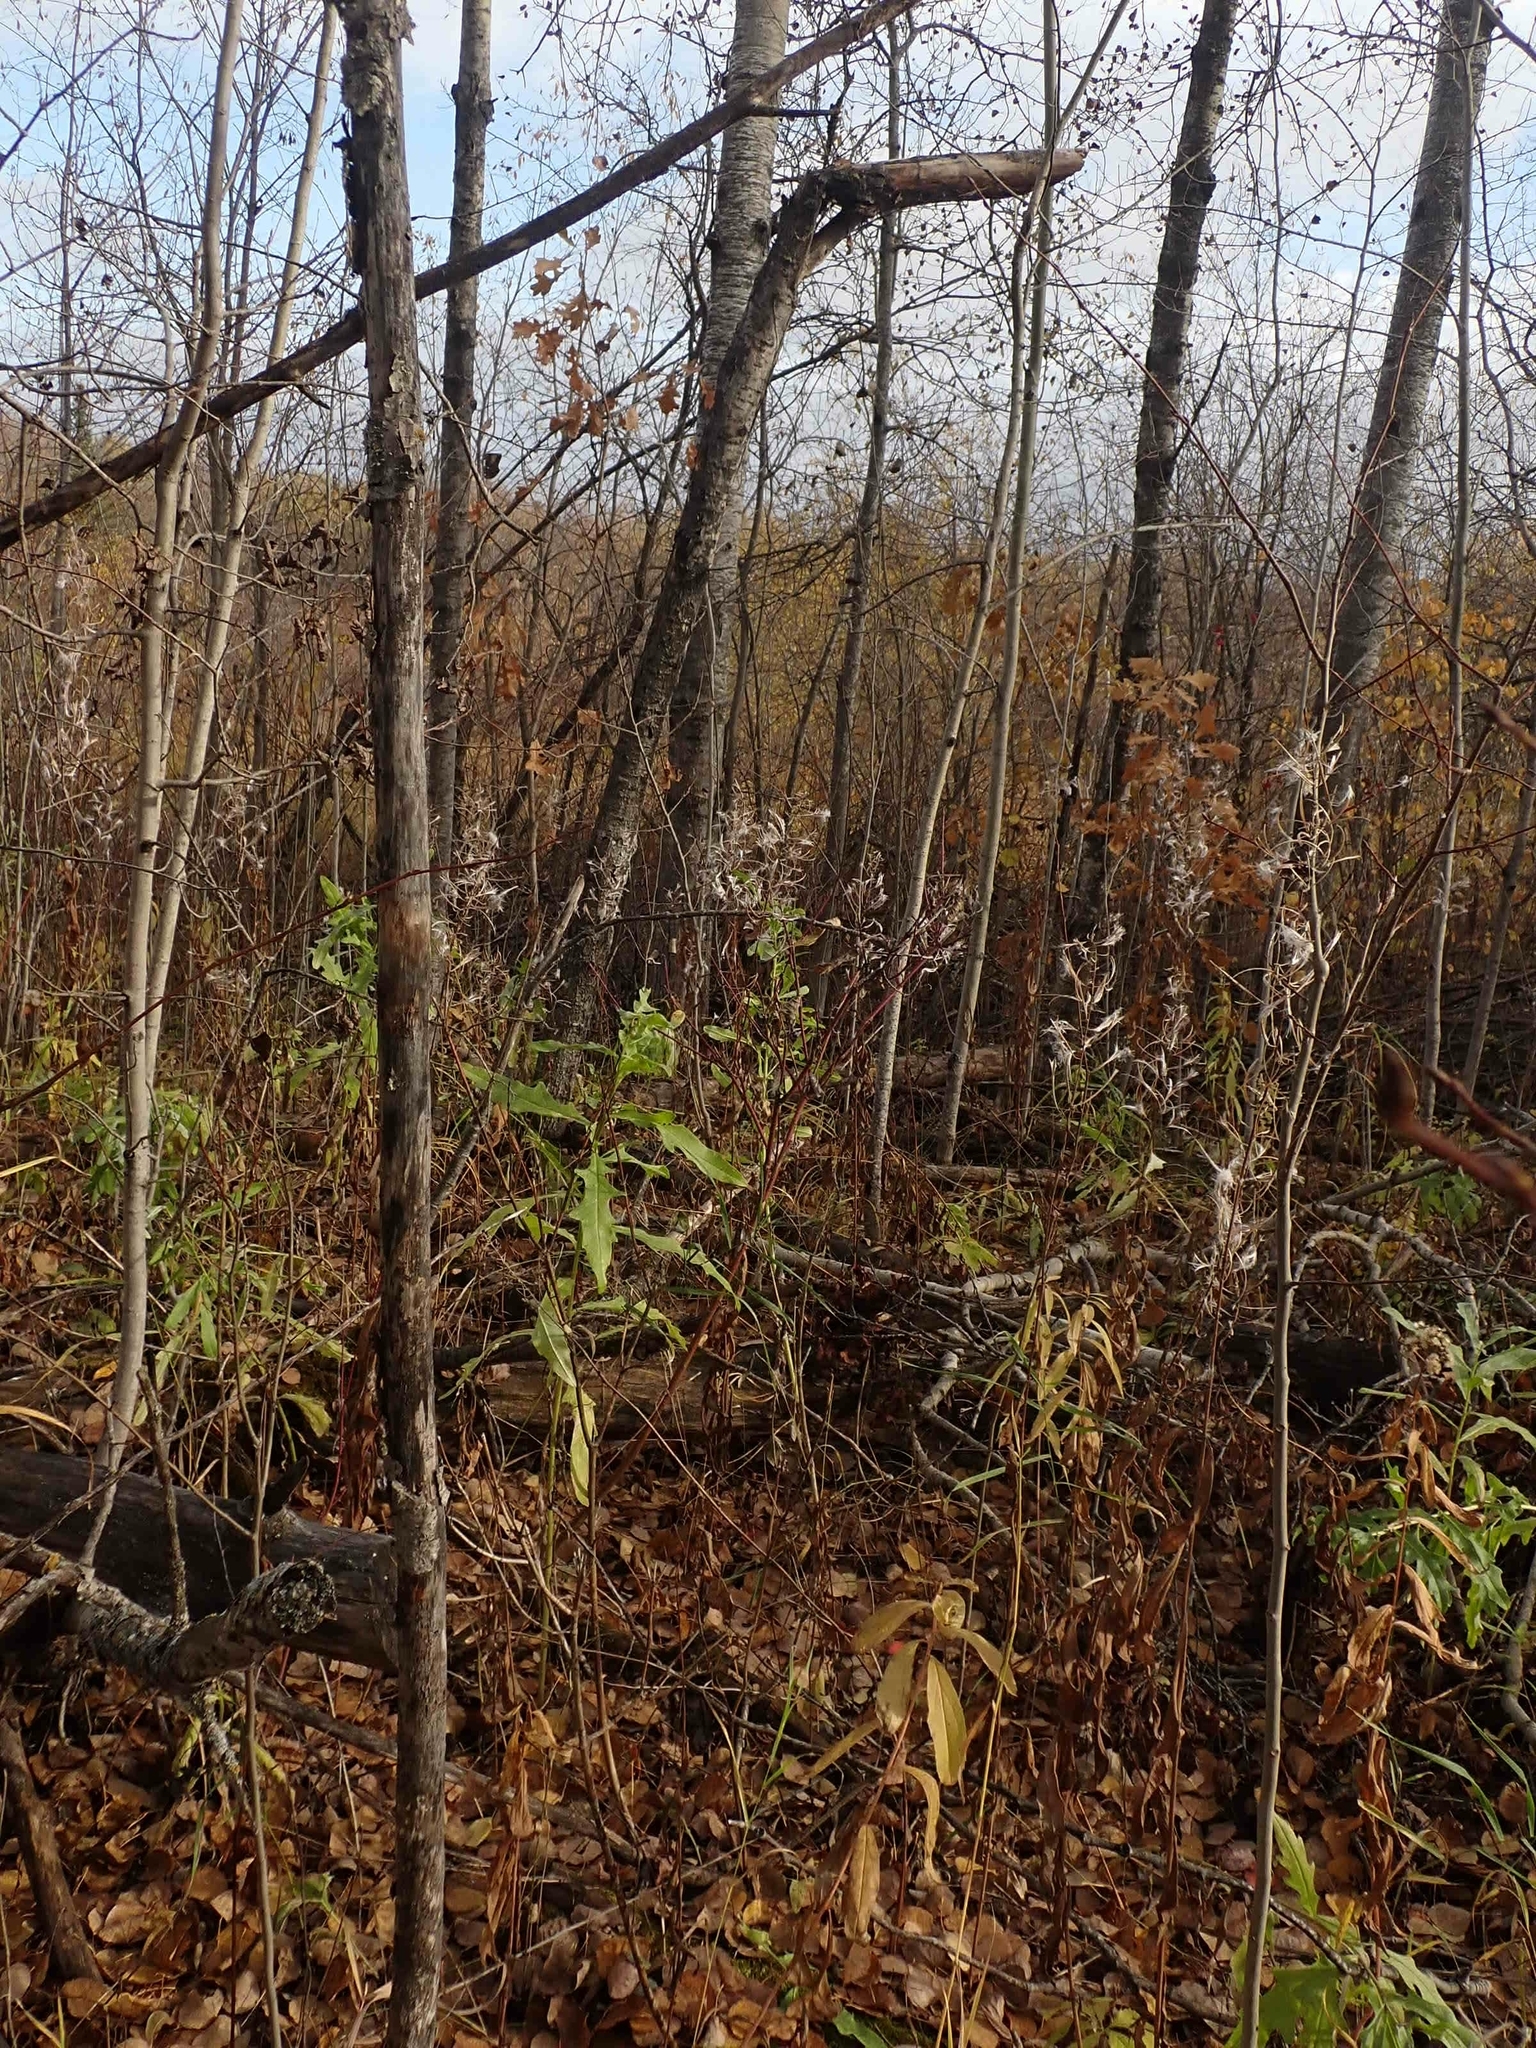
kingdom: Plantae
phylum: Tracheophyta
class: Magnoliopsida
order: Myrtales
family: Onagraceae
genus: Chamaenerion
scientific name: Chamaenerion angustifolium
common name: Fireweed
